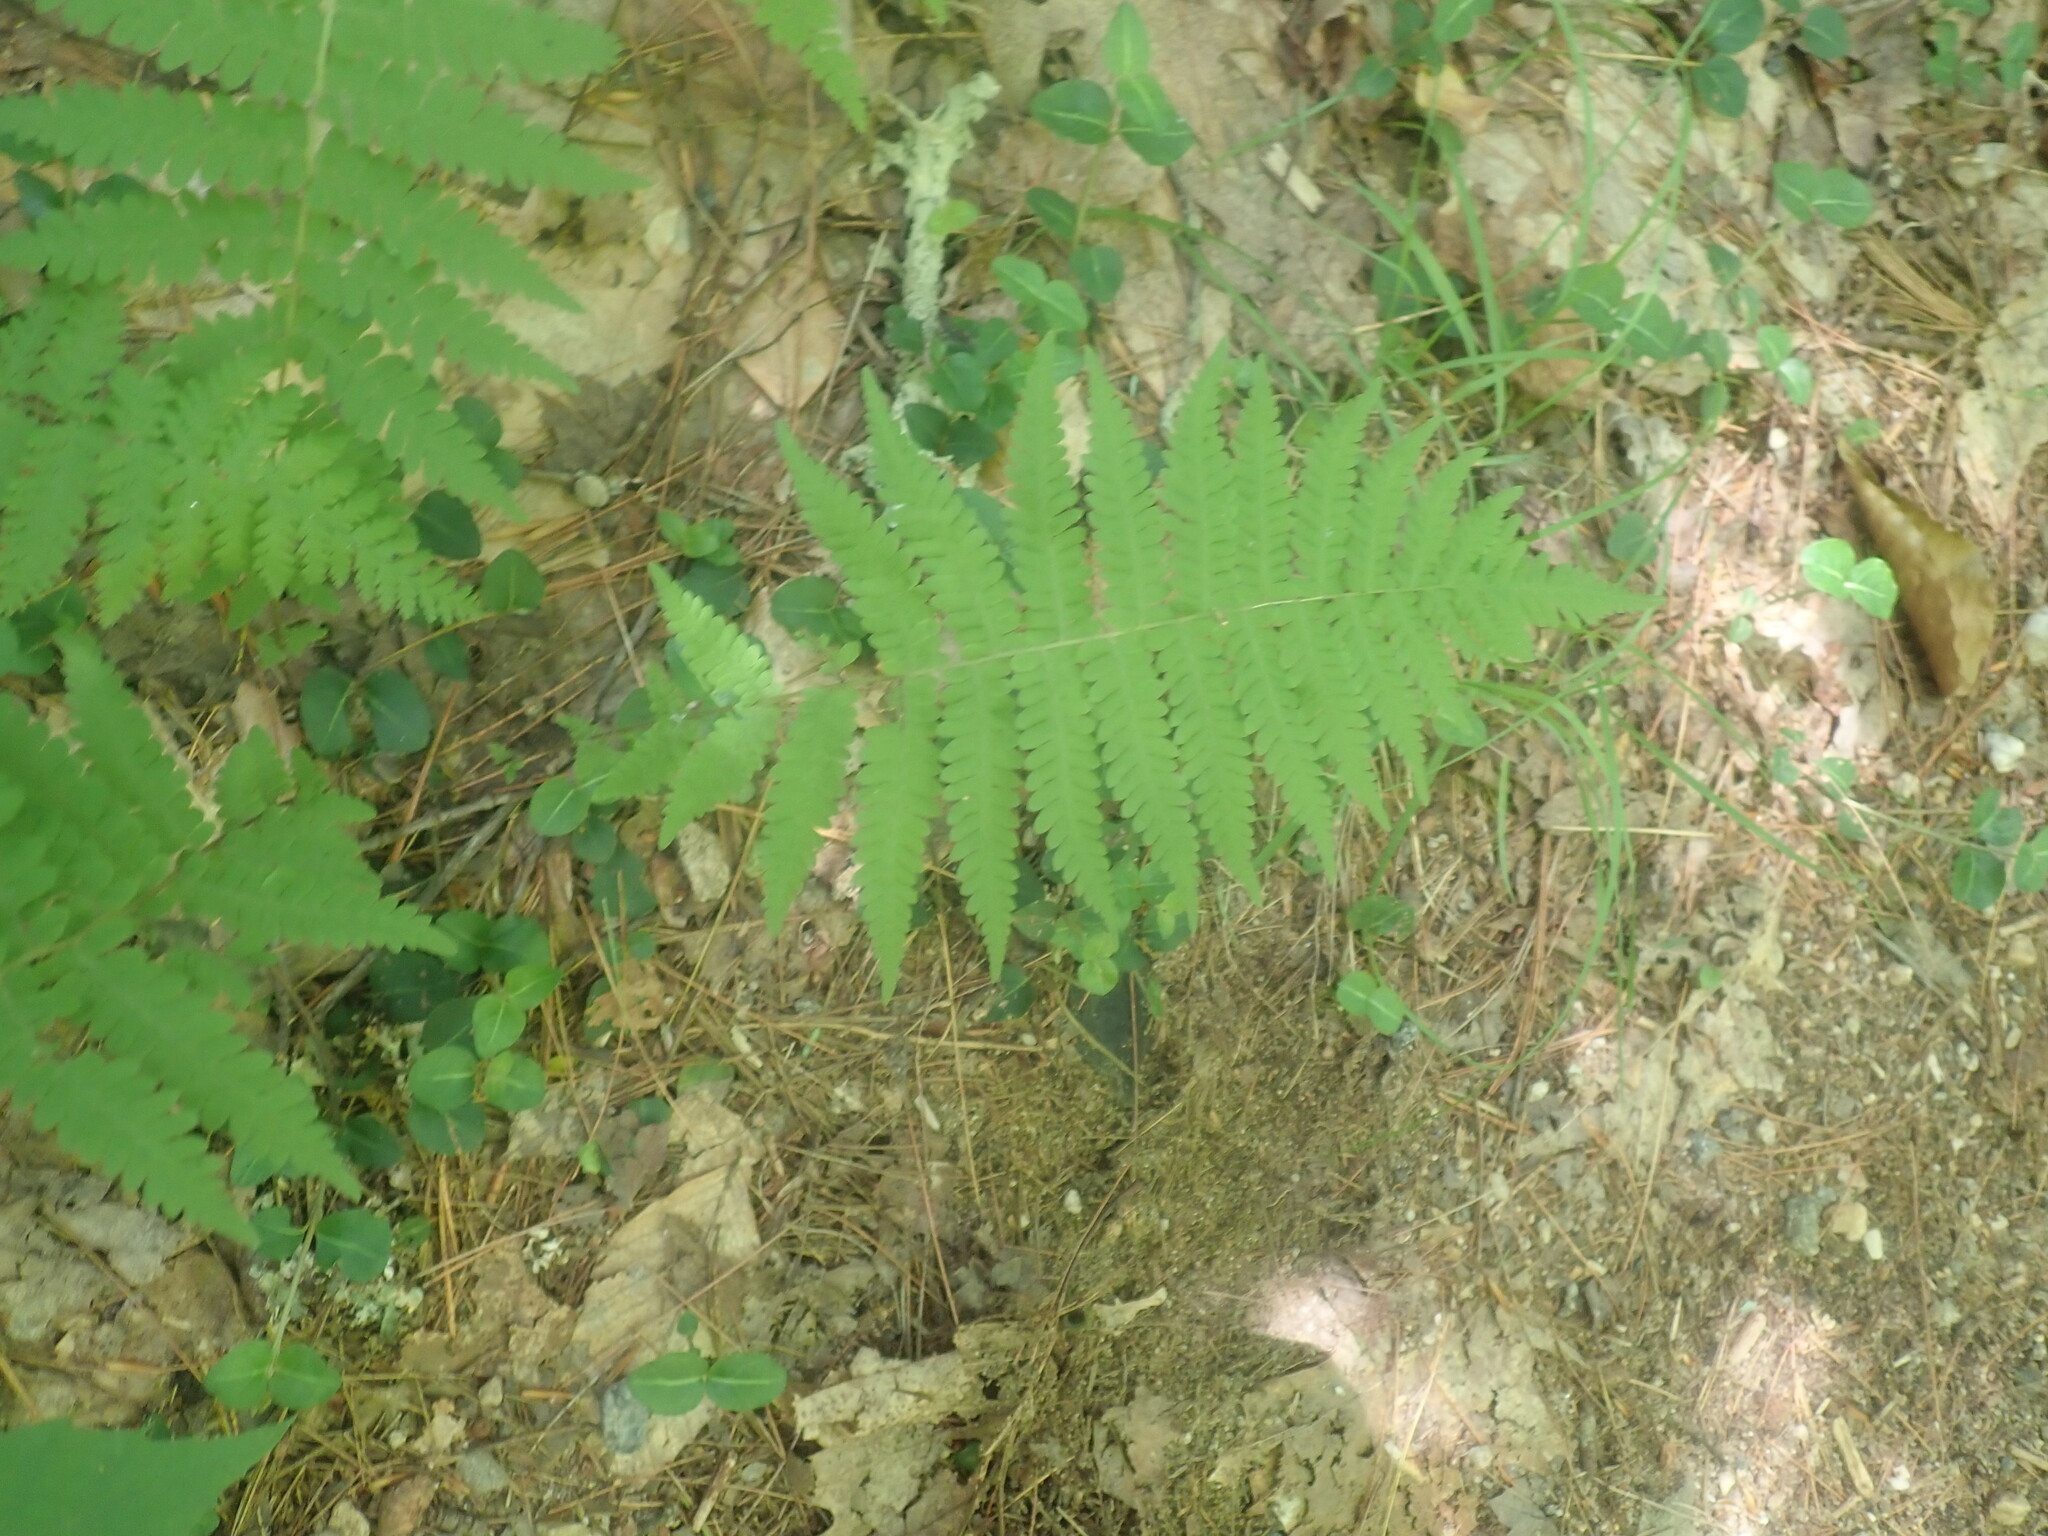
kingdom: Plantae
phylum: Tracheophyta
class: Polypodiopsida
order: Polypodiales
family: Thelypteridaceae
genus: Amauropelta
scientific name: Amauropelta noveboracensis
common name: New york fern
